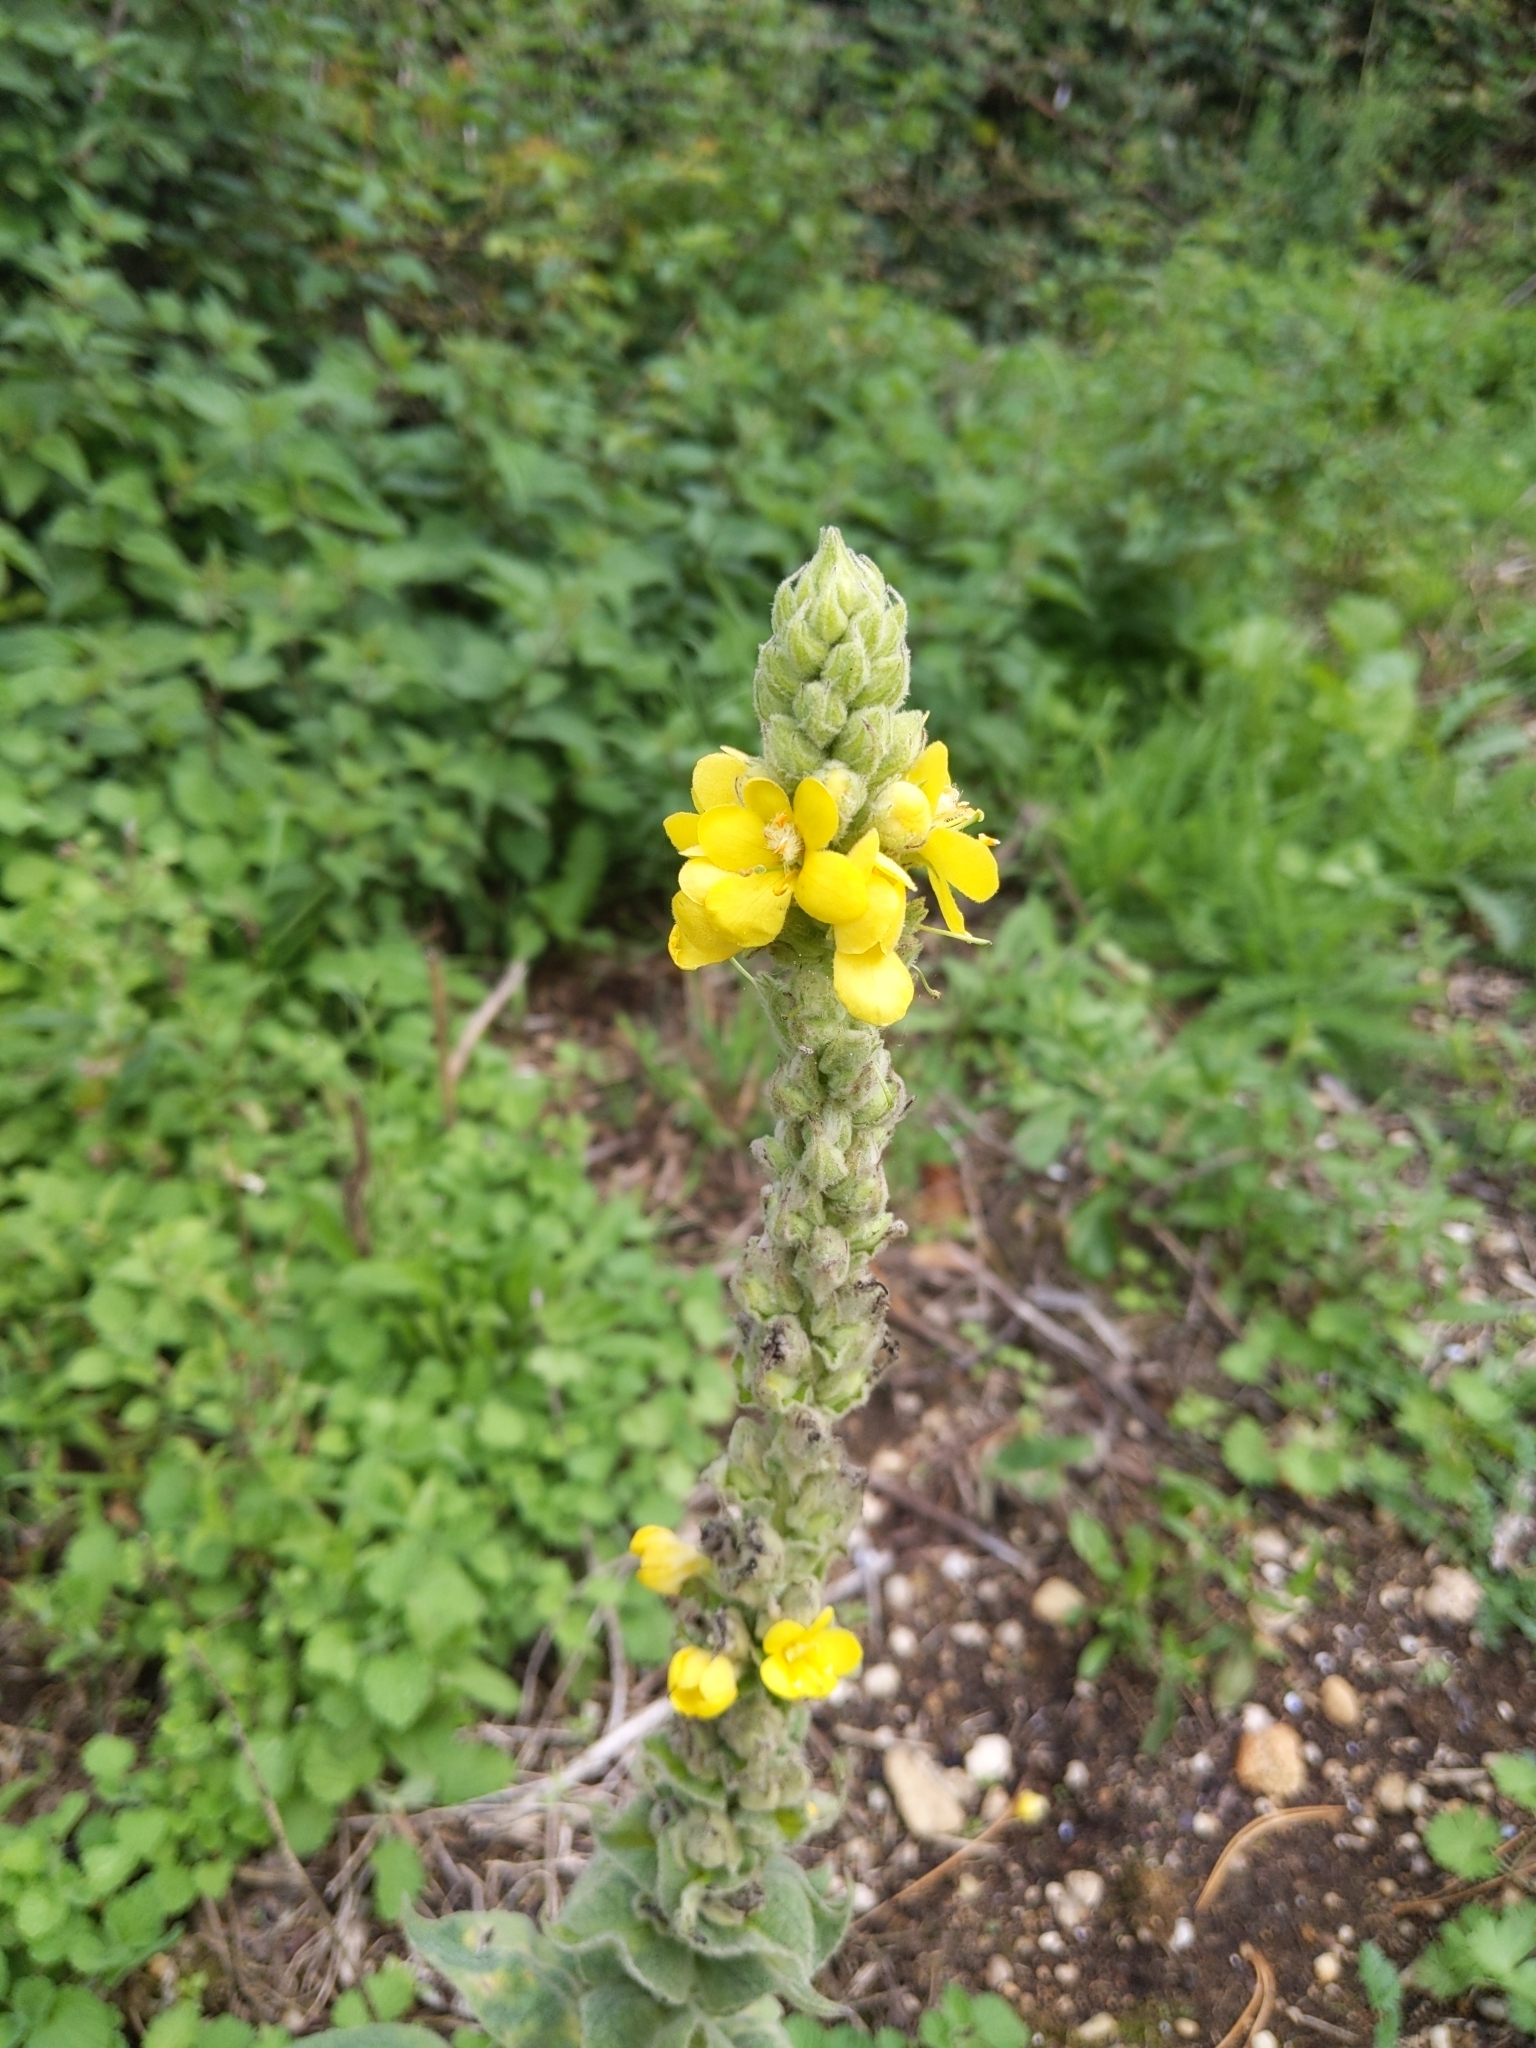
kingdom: Plantae
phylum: Tracheophyta
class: Magnoliopsida
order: Lamiales
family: Scrophulariaceae
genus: Verbascum
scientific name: Verbascum thapsus
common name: Common mullein
